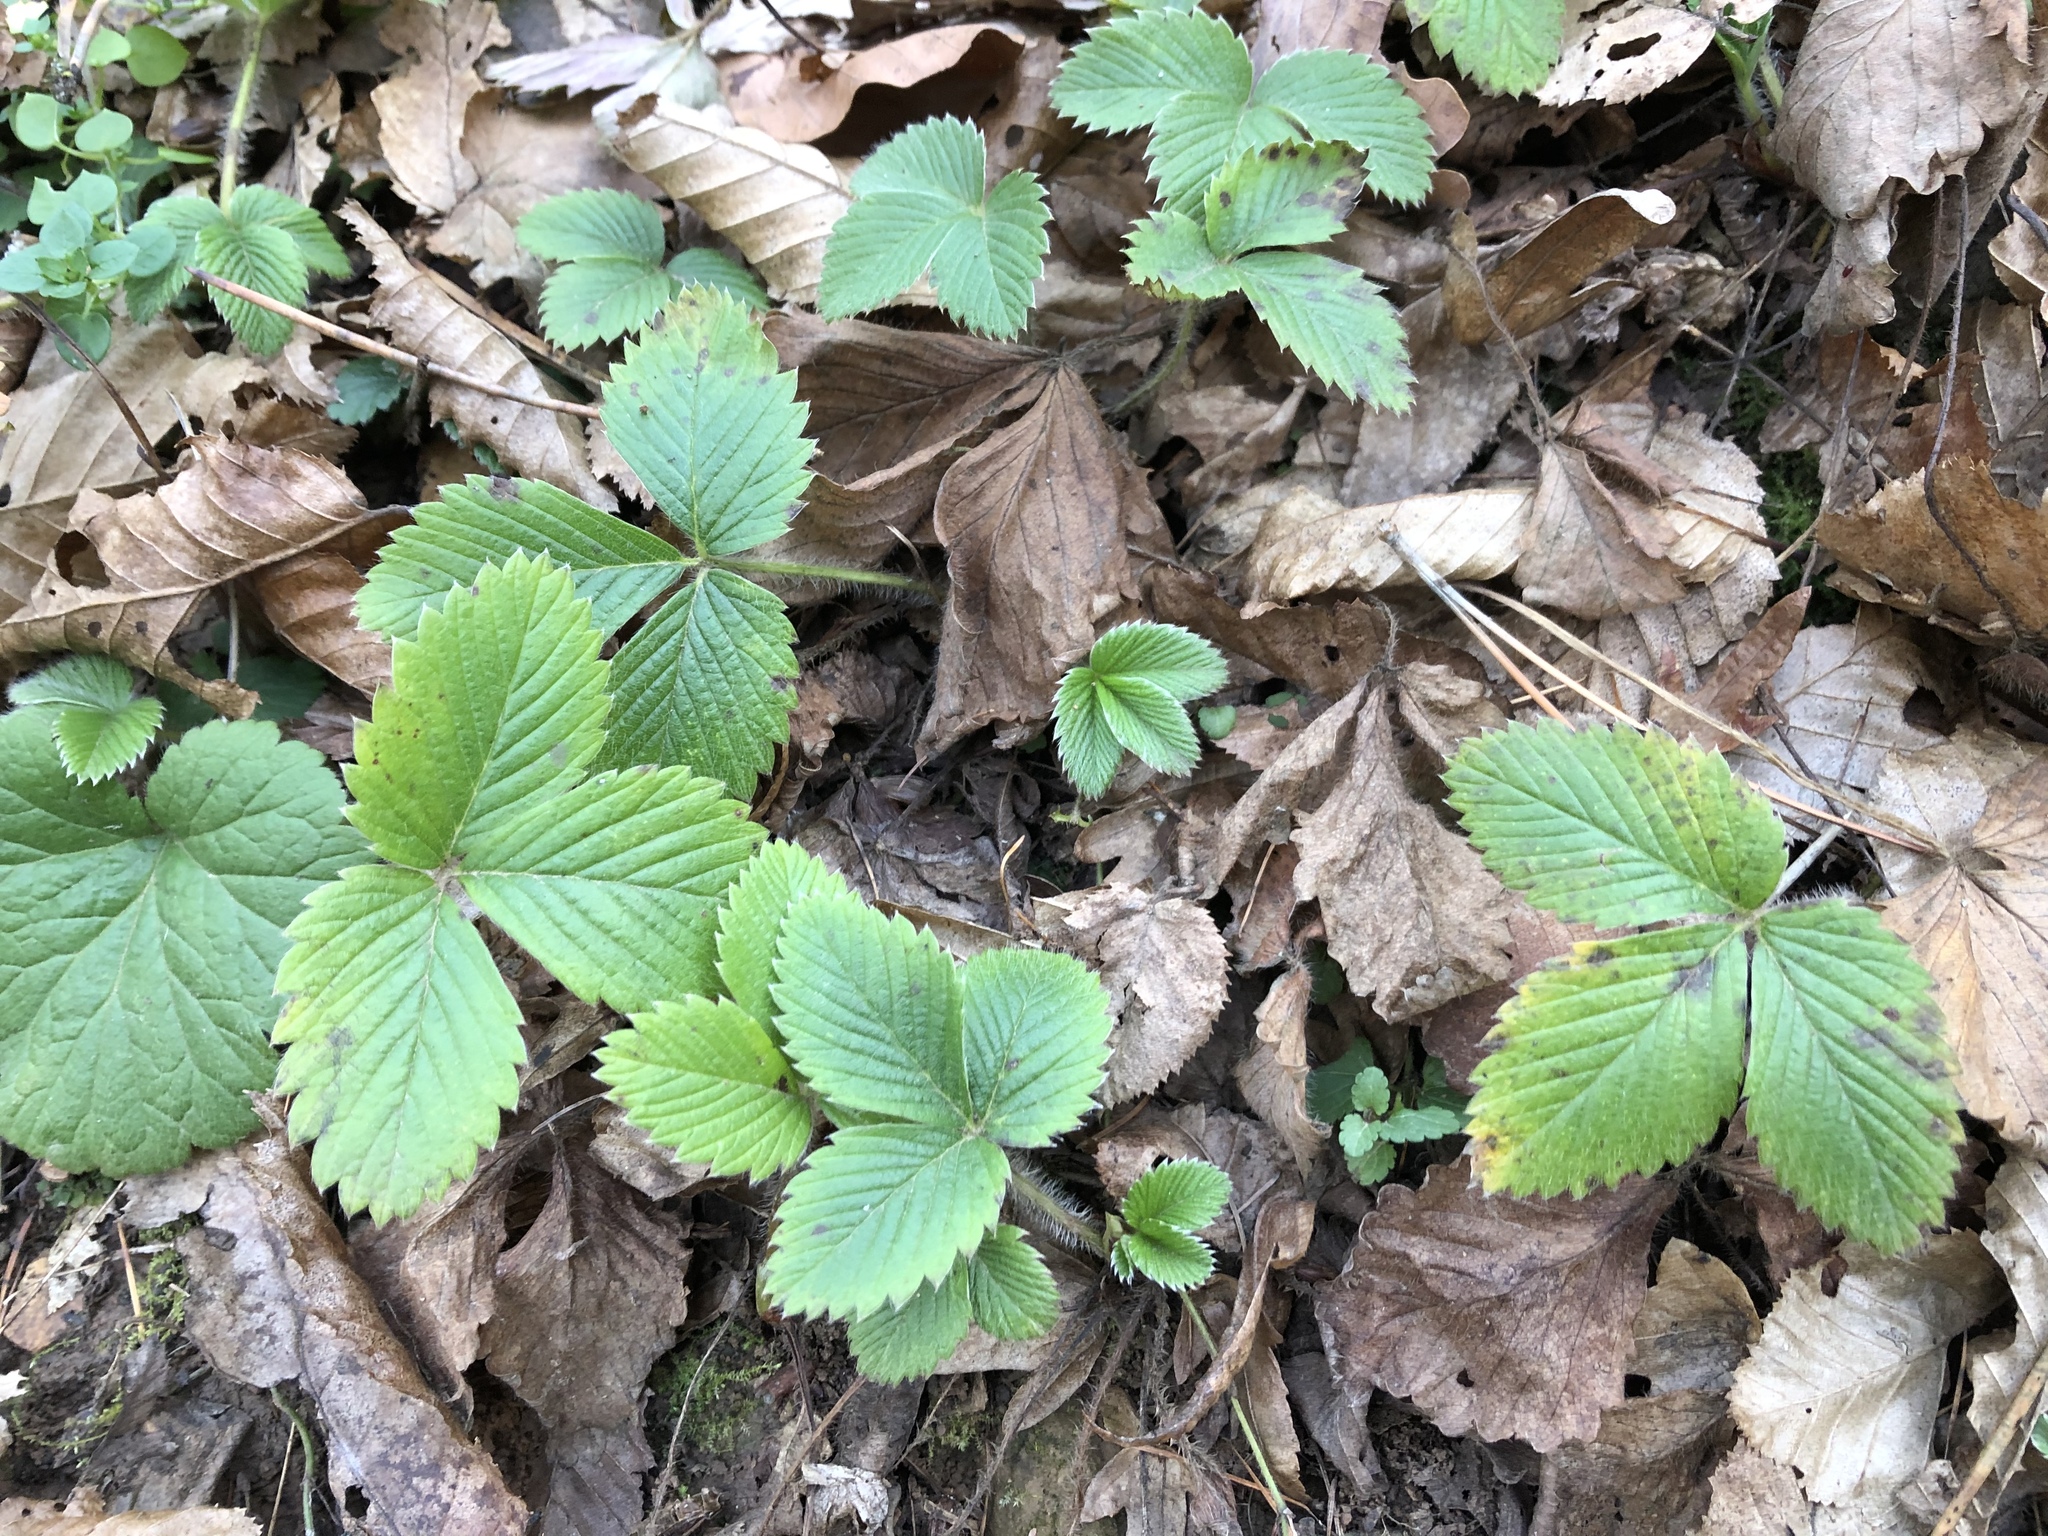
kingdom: Plantae
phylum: Tracheophyta
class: Magnoliopsida
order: Rosales
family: Rosaceae
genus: Fragaria
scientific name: Fragaria vesca
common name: Wild strawberry
